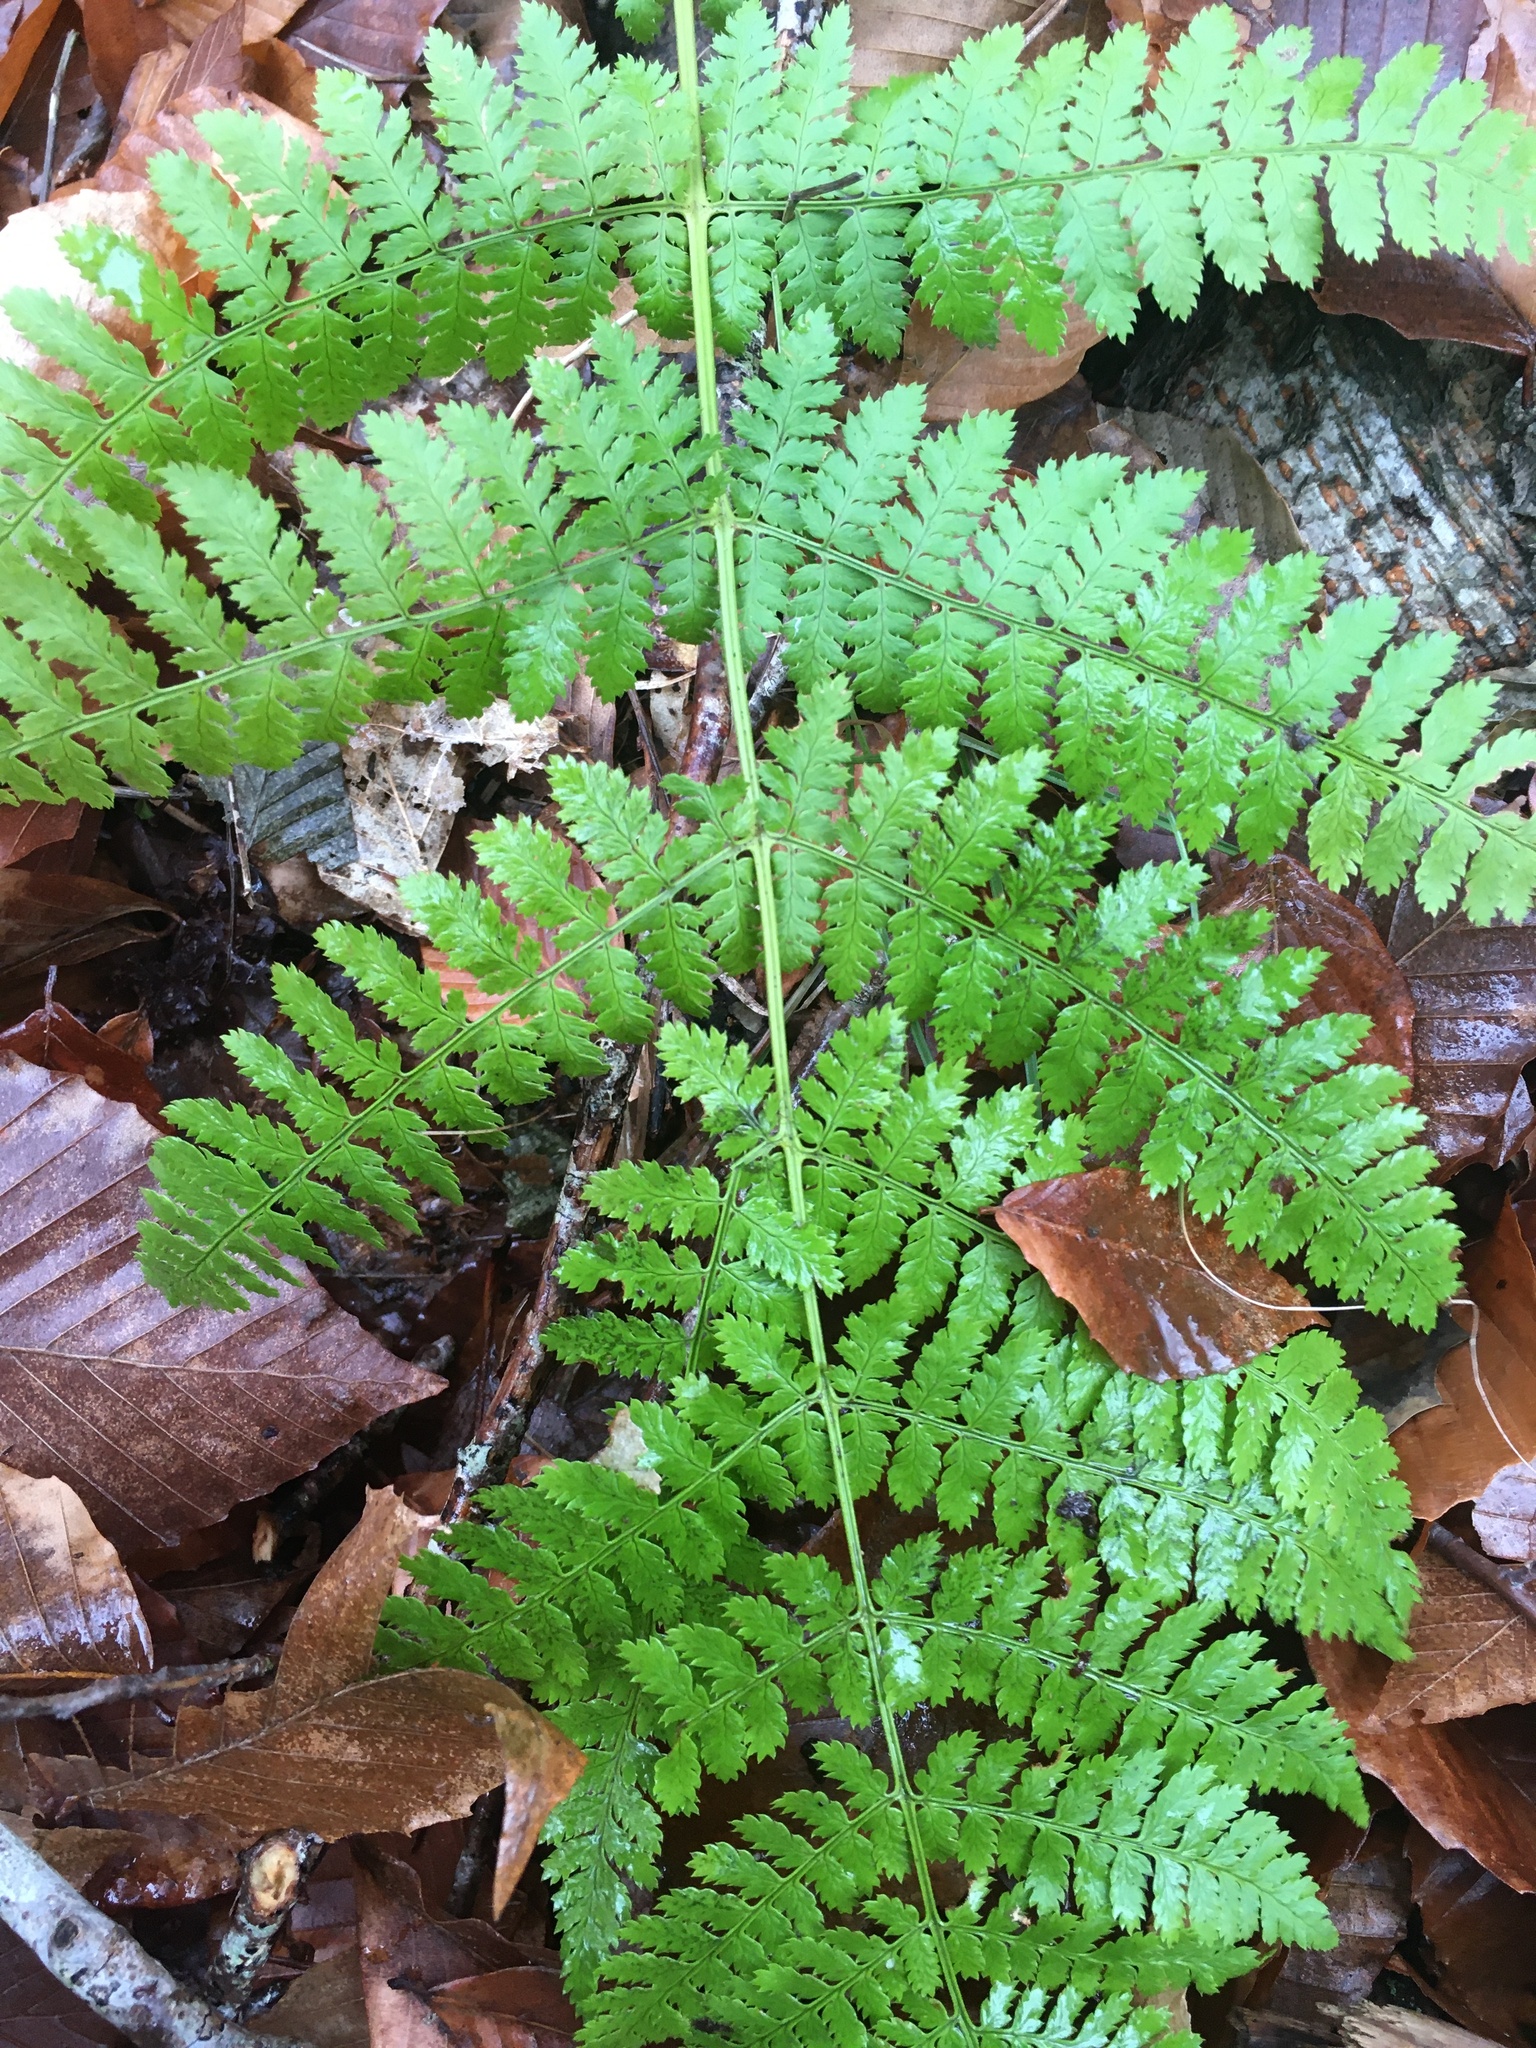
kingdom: Plantae
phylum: Tracheophyta
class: Polypodiopsida
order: Polypodiales
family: Dryopteridaceae
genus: Dryopteris
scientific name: Dryopteris intermedia
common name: Evergreen wood fern
